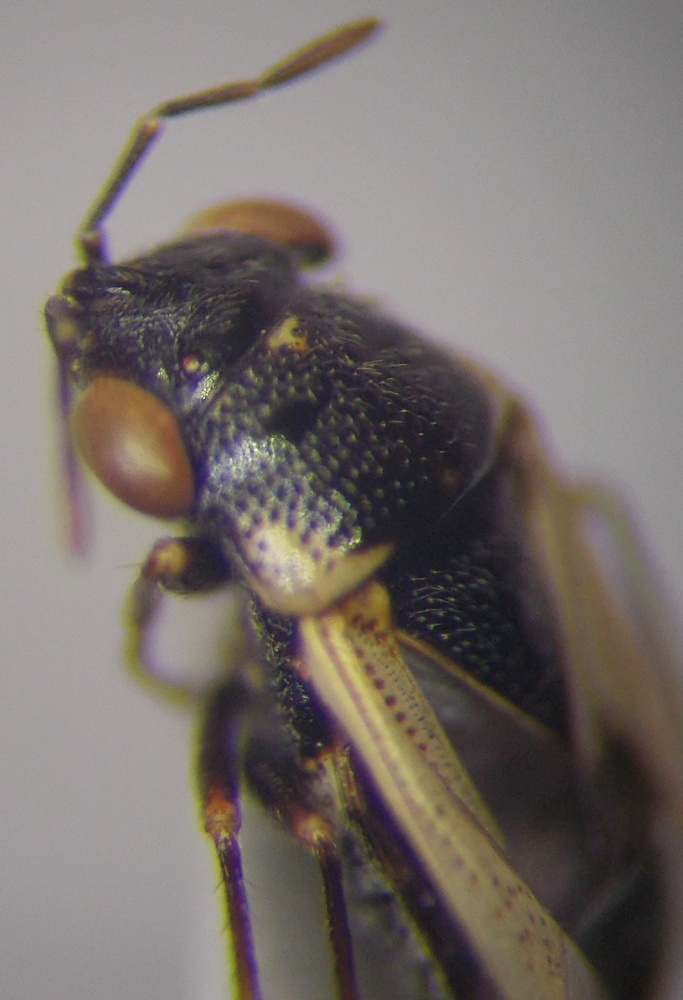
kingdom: Animalia
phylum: Arthropoda
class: Insecta
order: Hemiptera
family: Geocoridae
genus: Geocoris
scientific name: Geocoris pallidipennis
